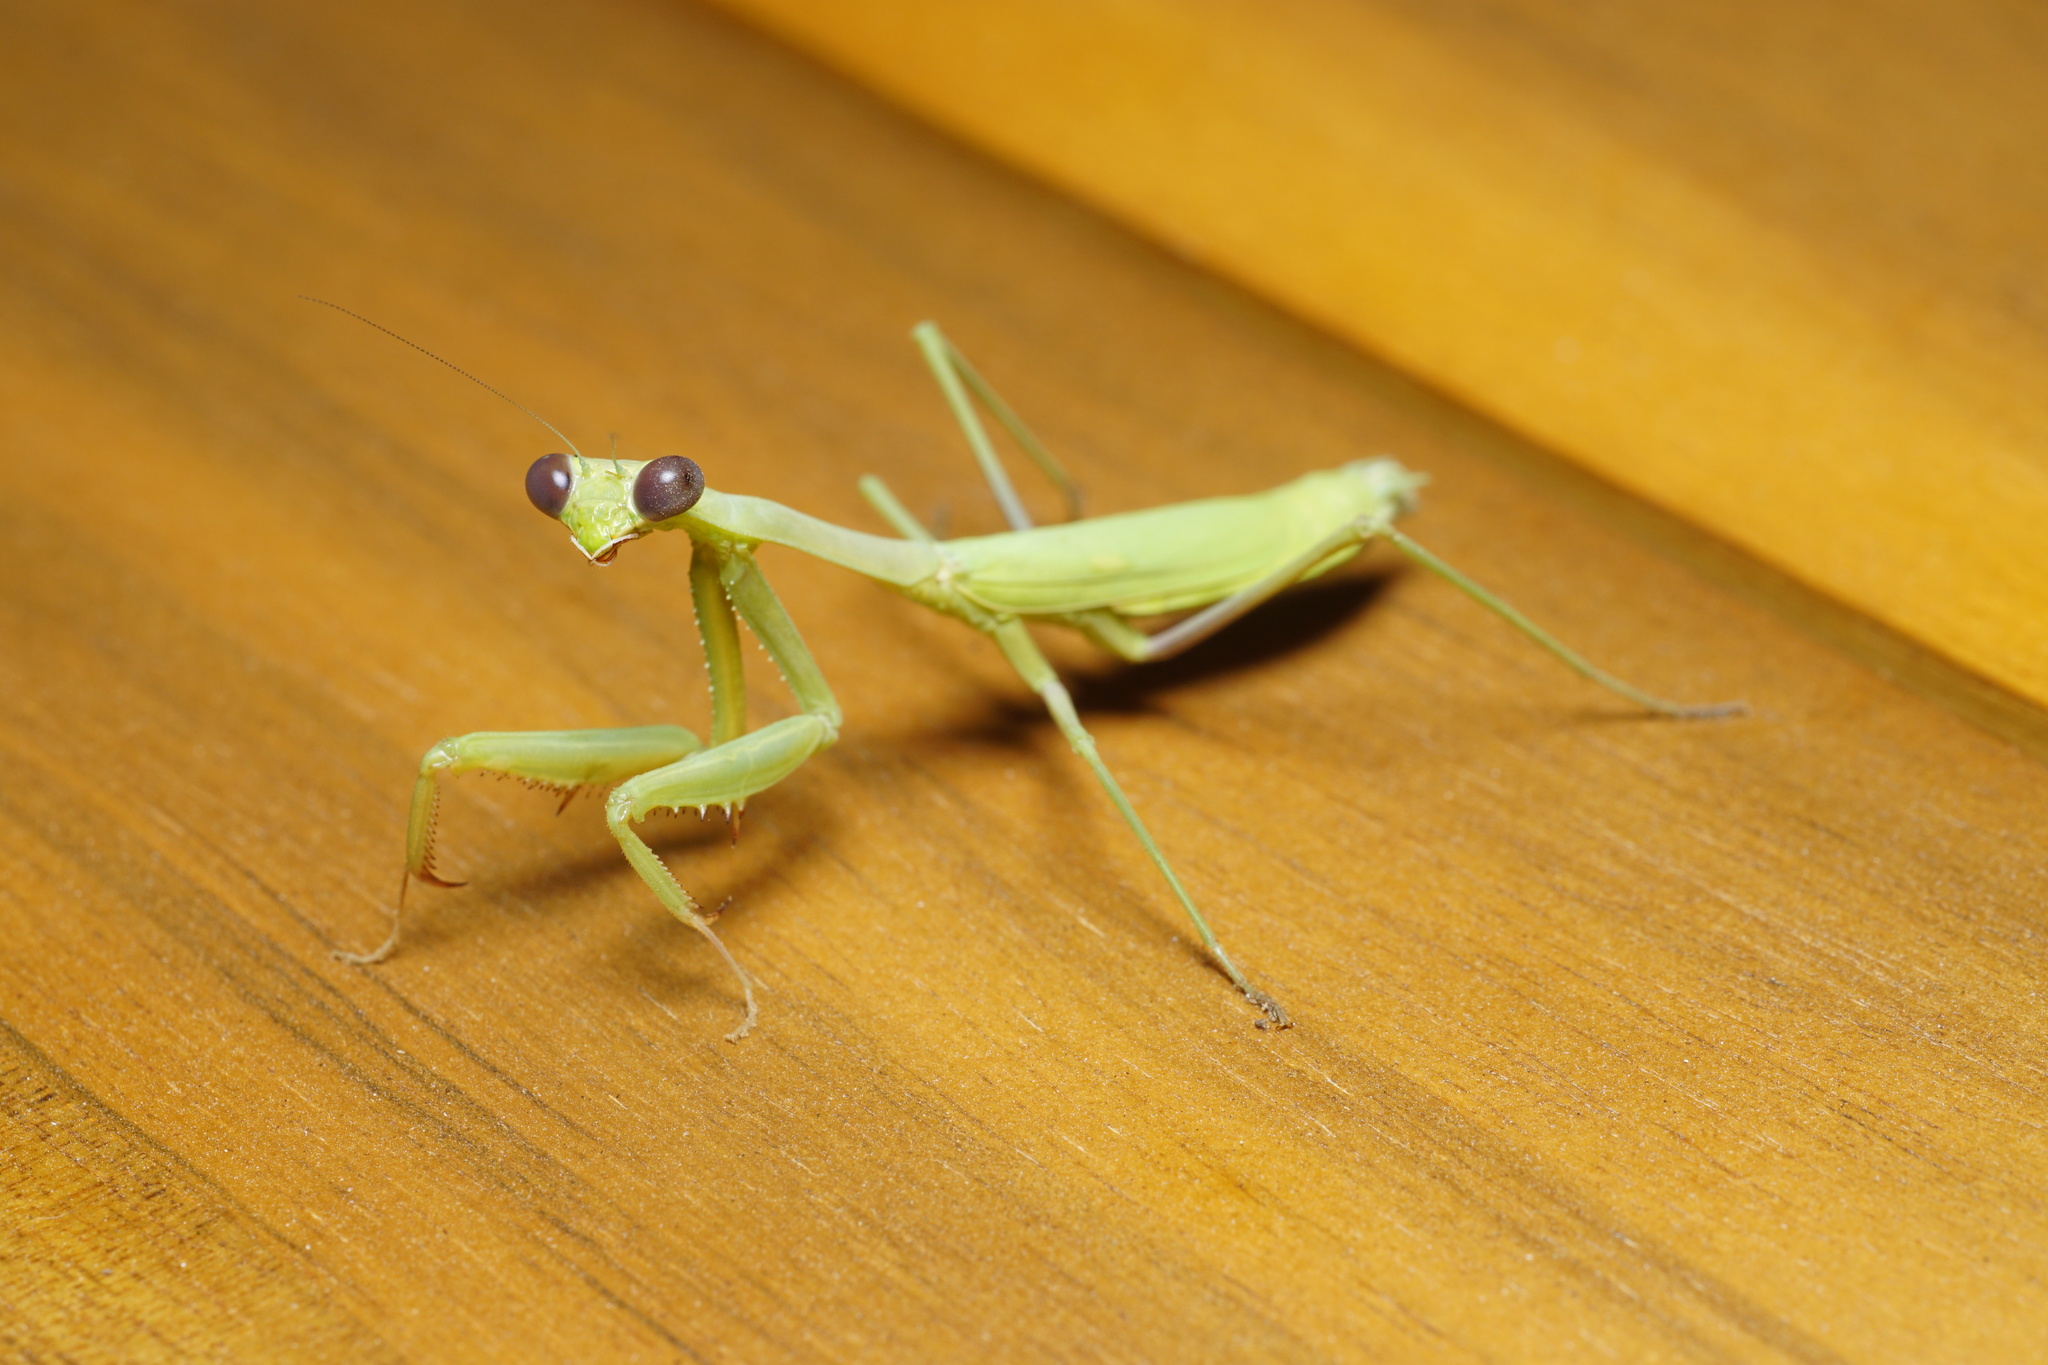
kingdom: Animalia
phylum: Arthropoda
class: Insecta
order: Mantodea
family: Mantidae
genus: Stagmomantis
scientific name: Stagmomantis californica
